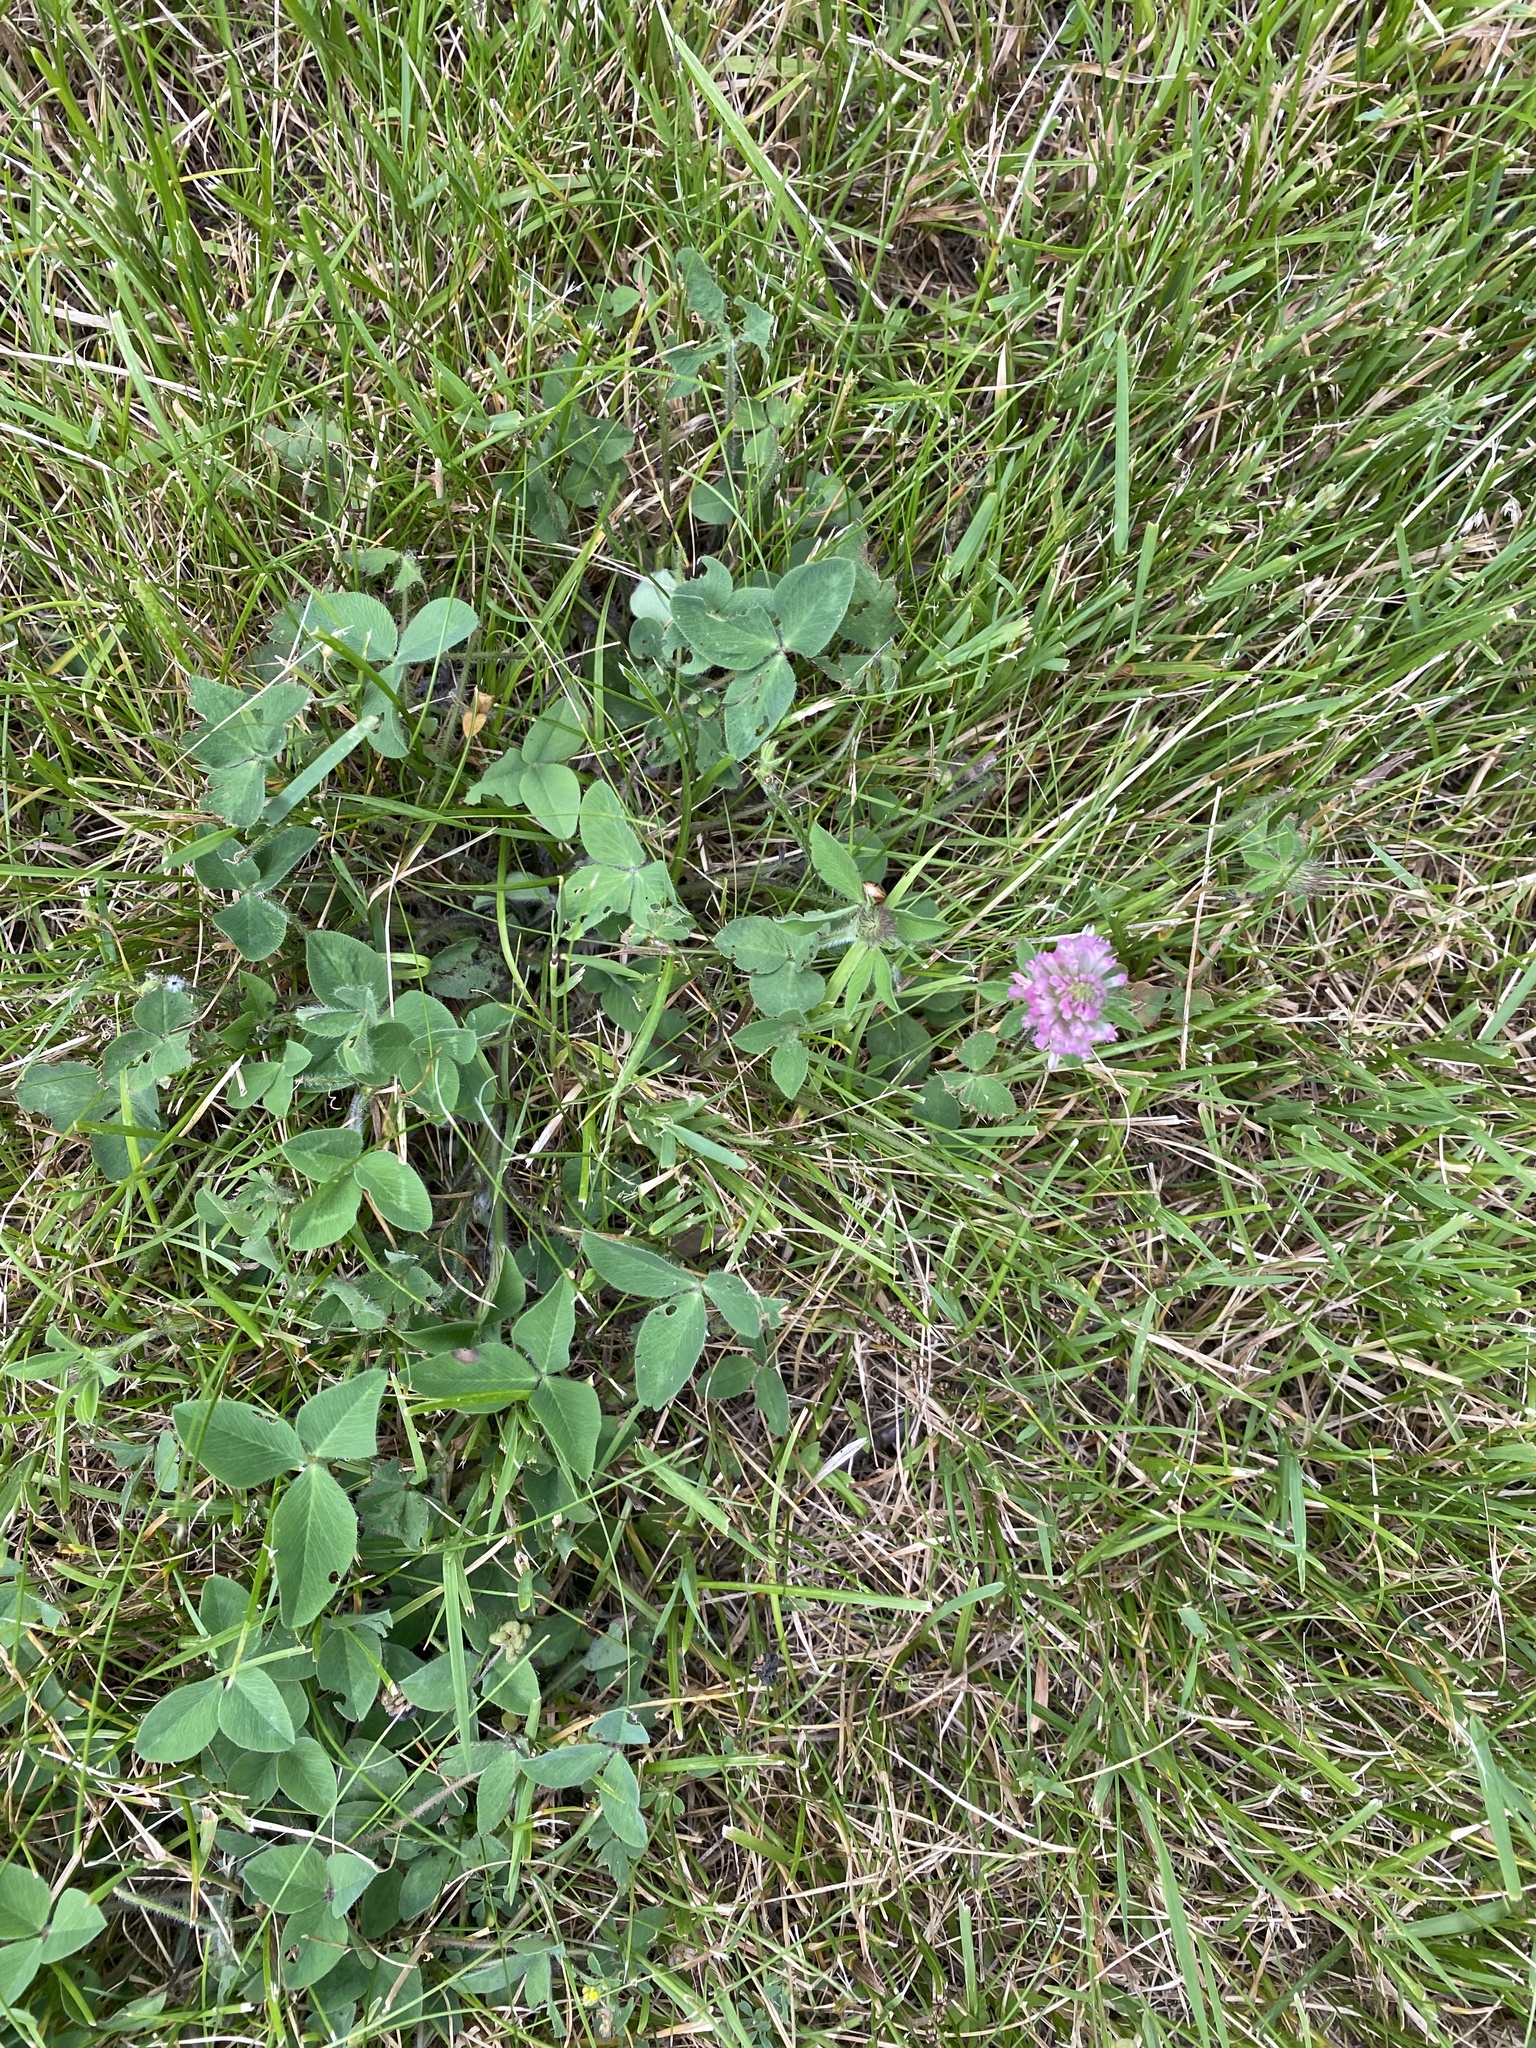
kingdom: Plantae
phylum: Tracheophyta
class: Magnoliopsida
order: Fabales
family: Fabaceae
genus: Trifolium
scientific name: Trifolium pratense
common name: Red clover
